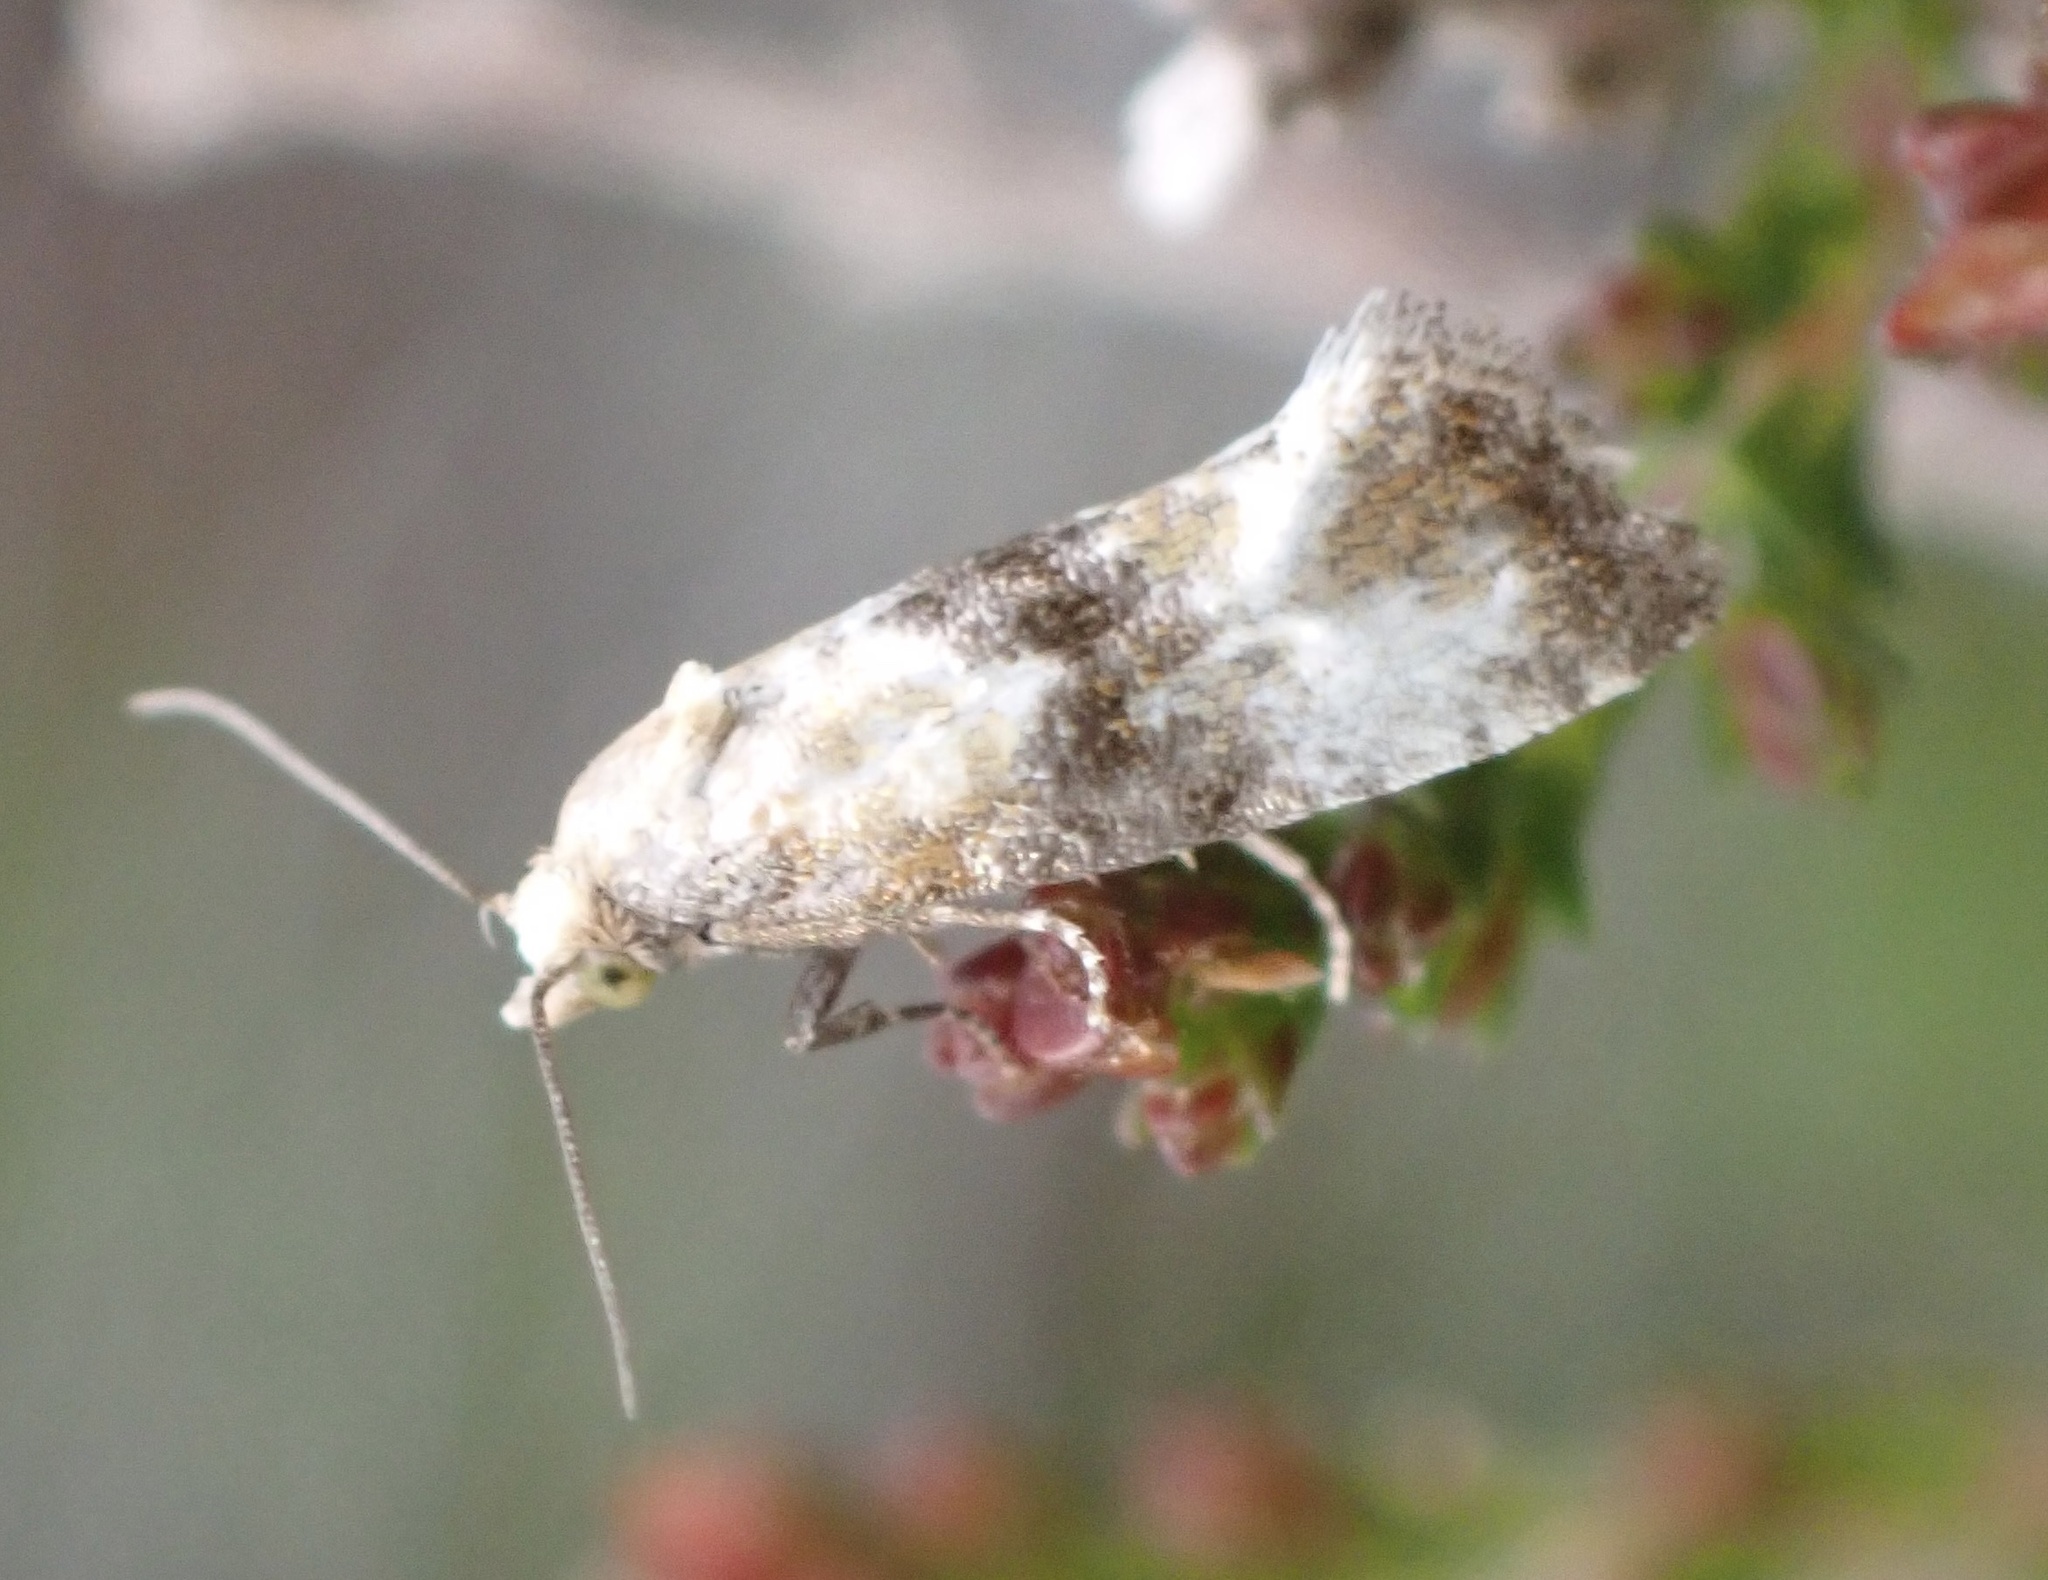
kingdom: Animalia
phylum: Arthropoda
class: Insecta
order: Lepidoptera
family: Tortricidae
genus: Eupoecilia
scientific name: Eupoecilia angustana
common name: Marbled conch
